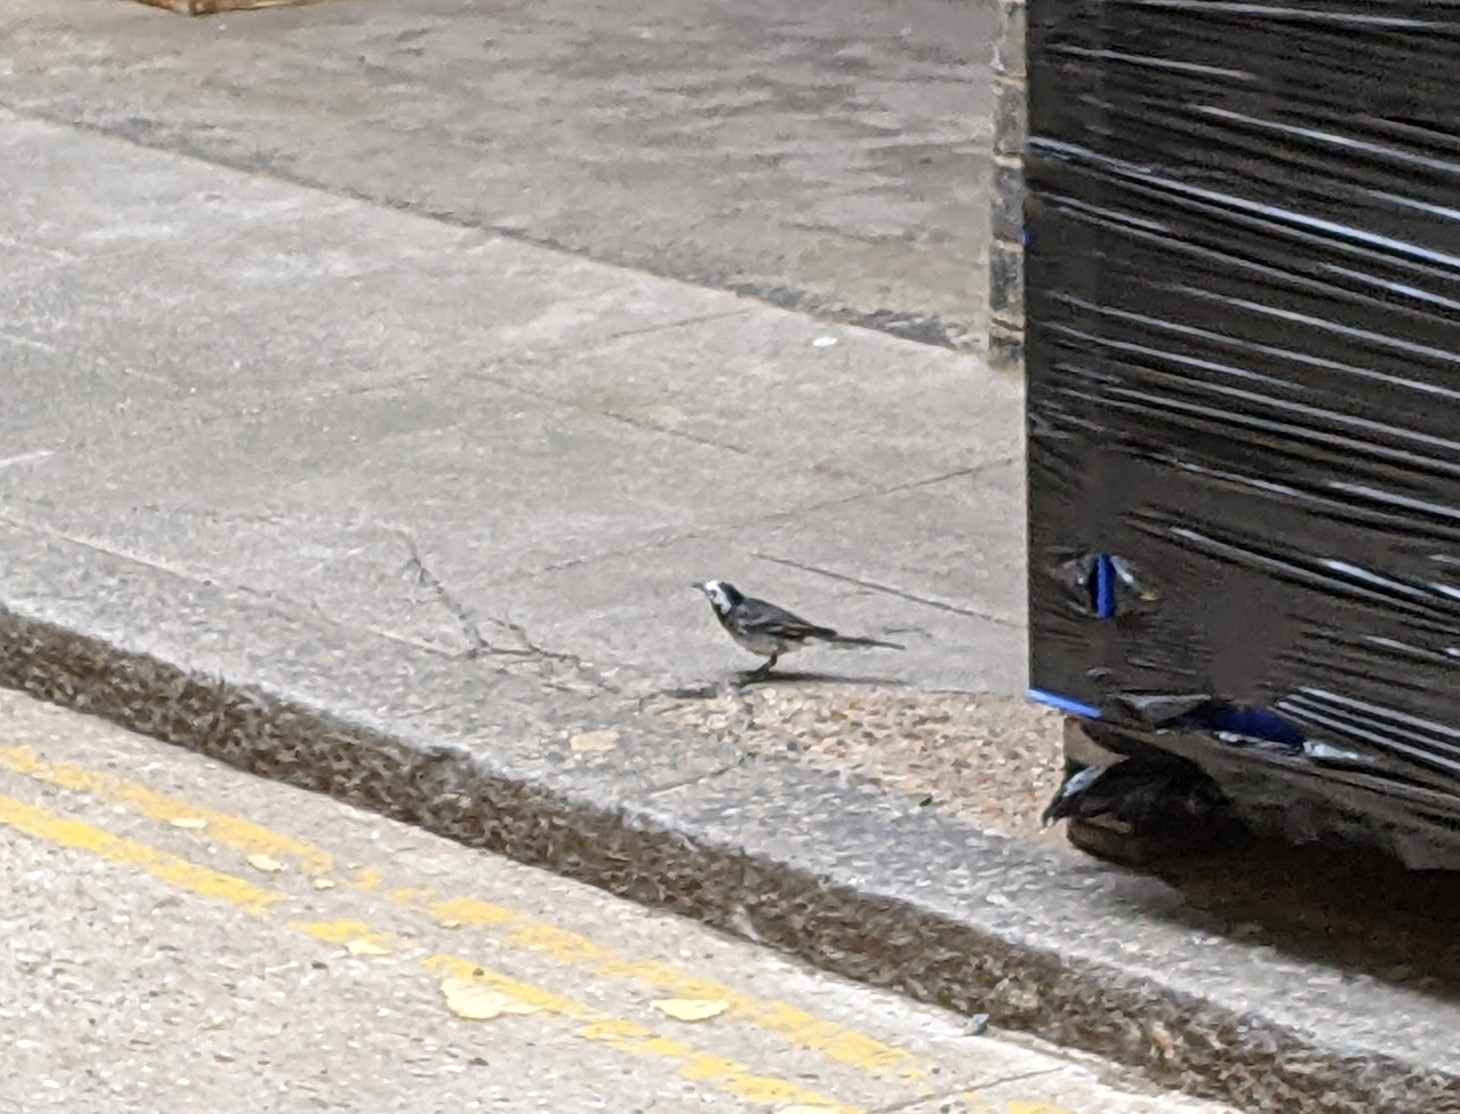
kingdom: Animalia
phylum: Chordata
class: Aves
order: Passeriformes
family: Motacillidae
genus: Motacilla
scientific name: Motacilla alba
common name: White wagtail
